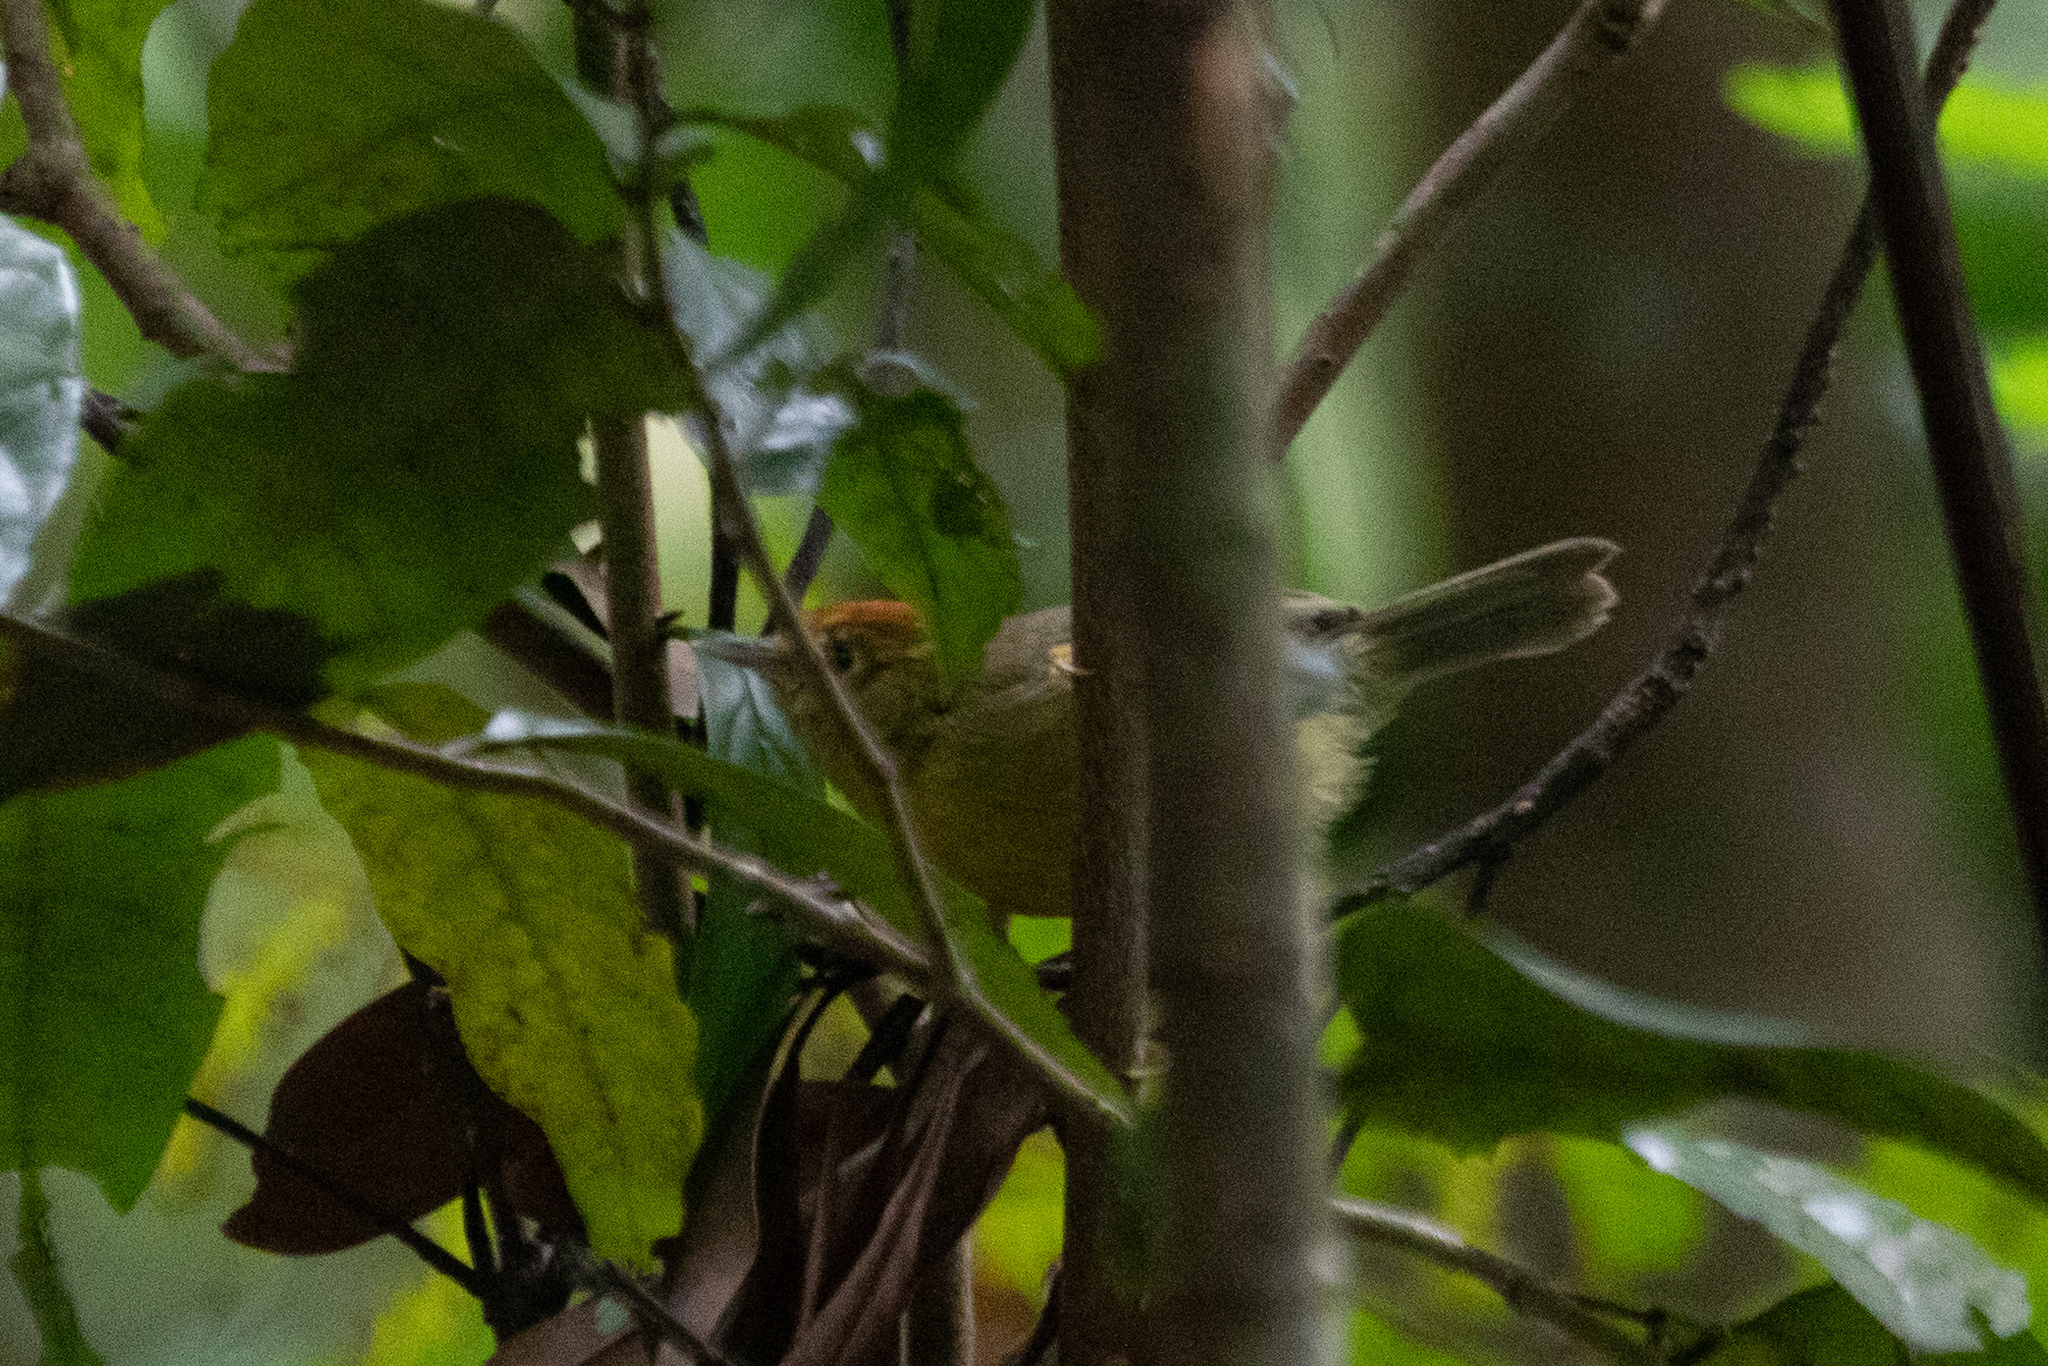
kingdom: Animalia
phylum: Chordata
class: Aves
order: Passeriformes
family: Timaliidae
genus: Stachyridopsis
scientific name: Stachyridopsis ruficeps
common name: Rufous-capped babbler
